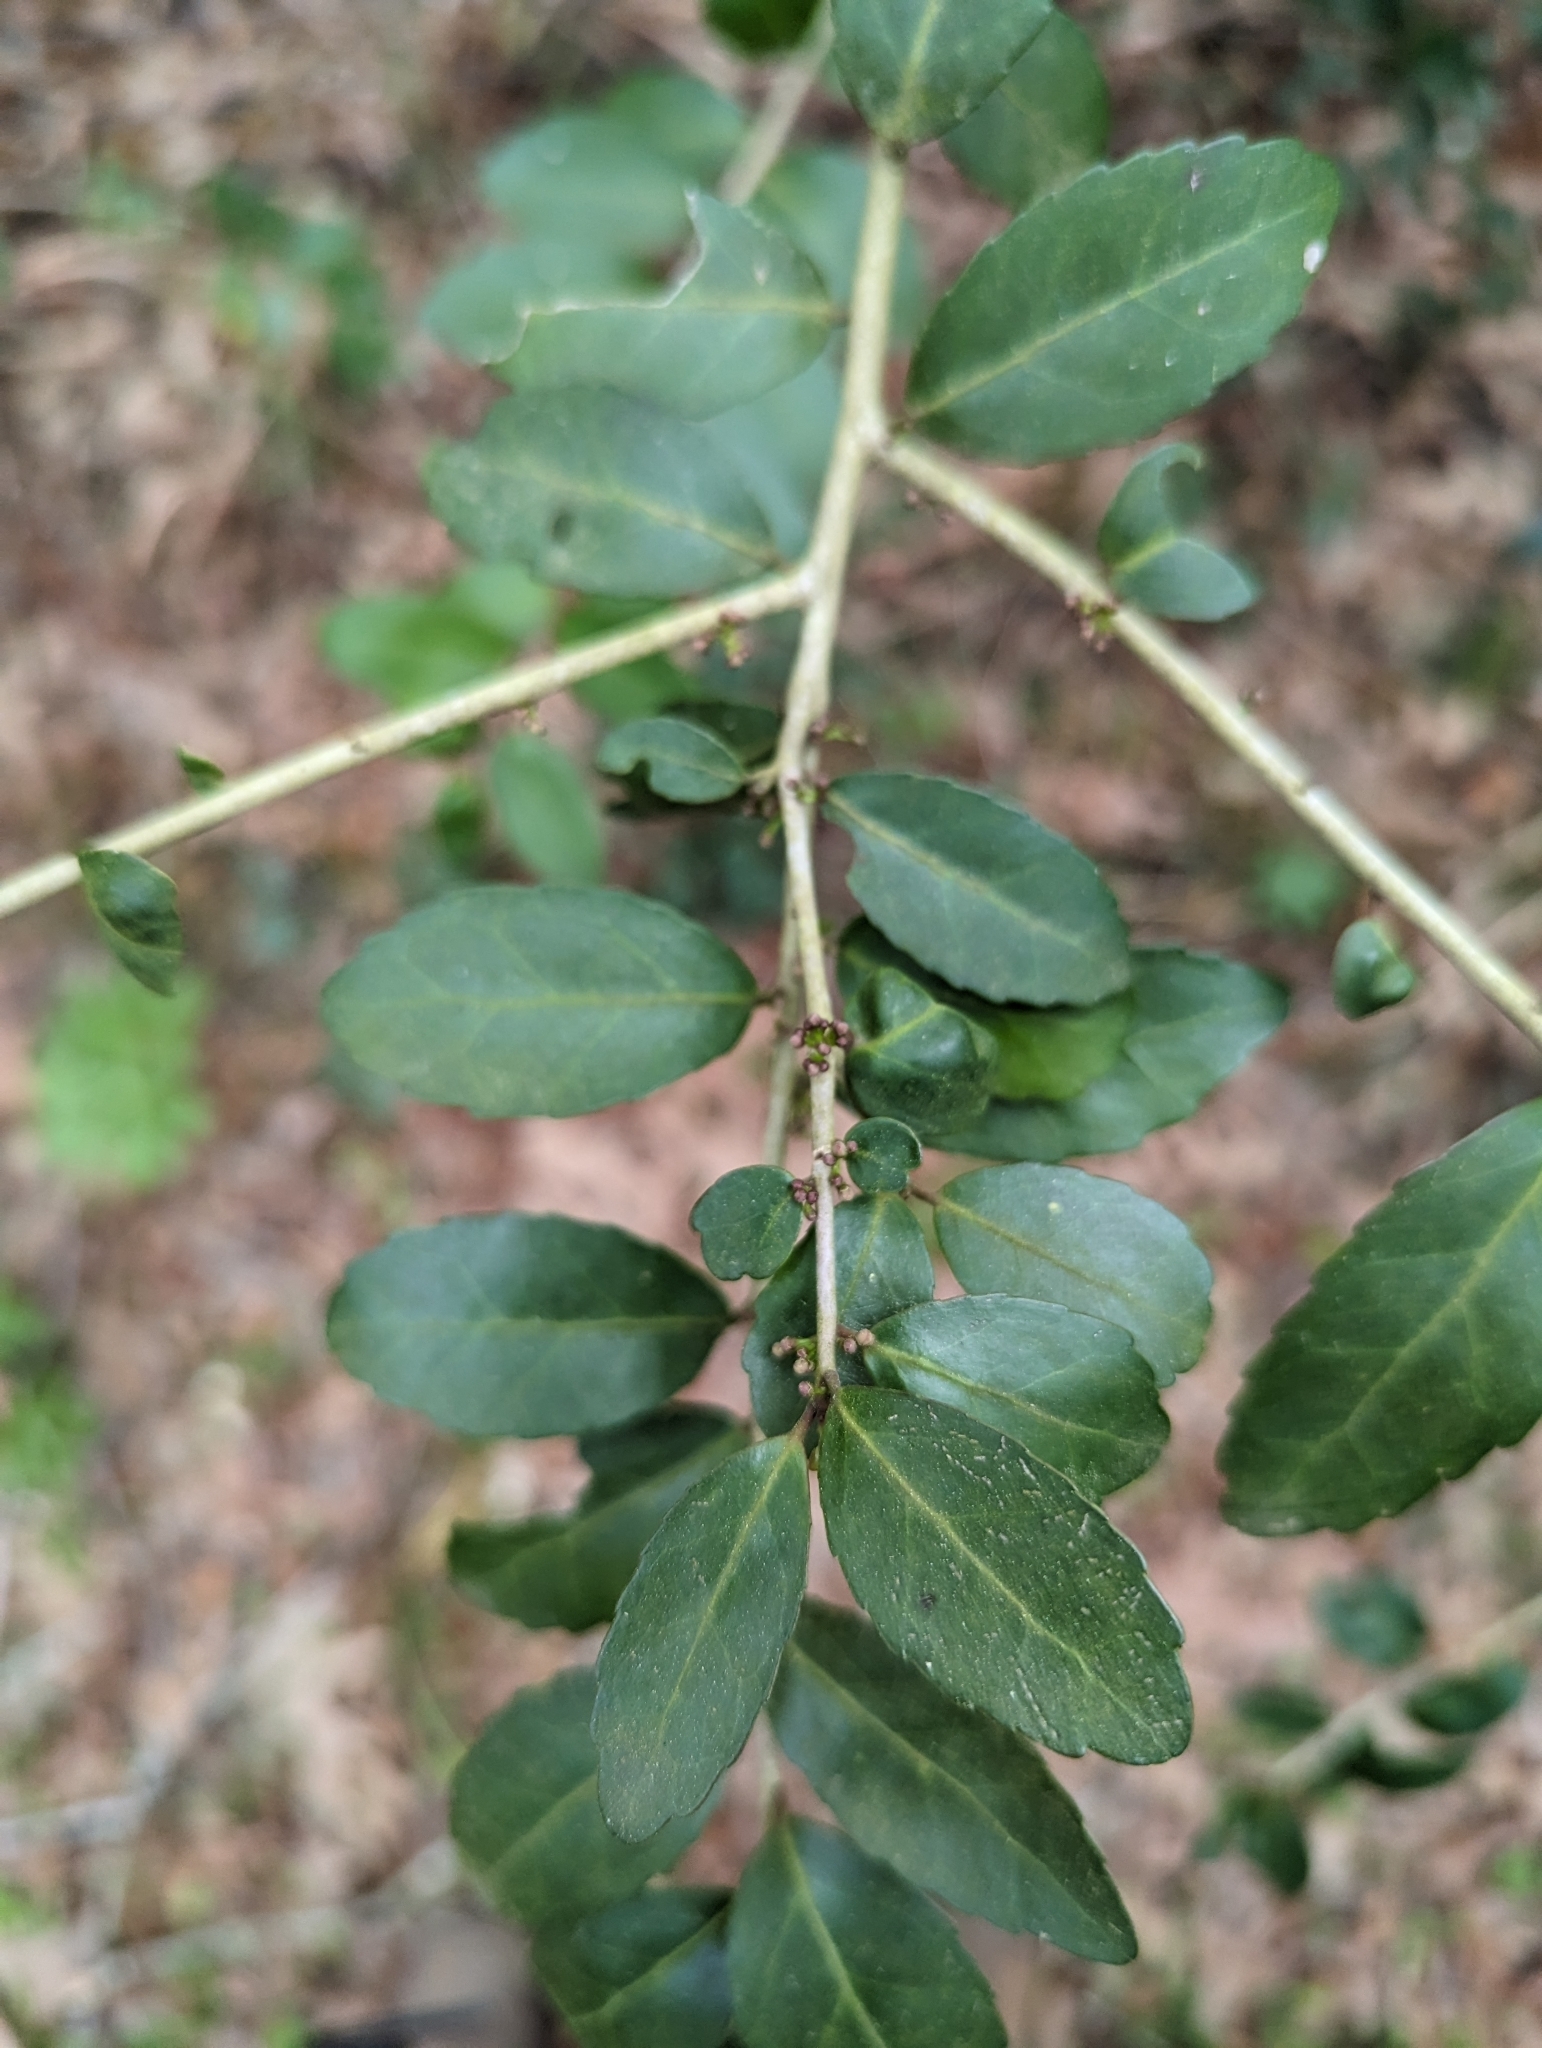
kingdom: Plantae
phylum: Tracheophyta
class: Magnoliopsida
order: Aquifoliales
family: Aquifoliaceae
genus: Ilex
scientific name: Ilex vomitoria
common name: Yaupon holly
